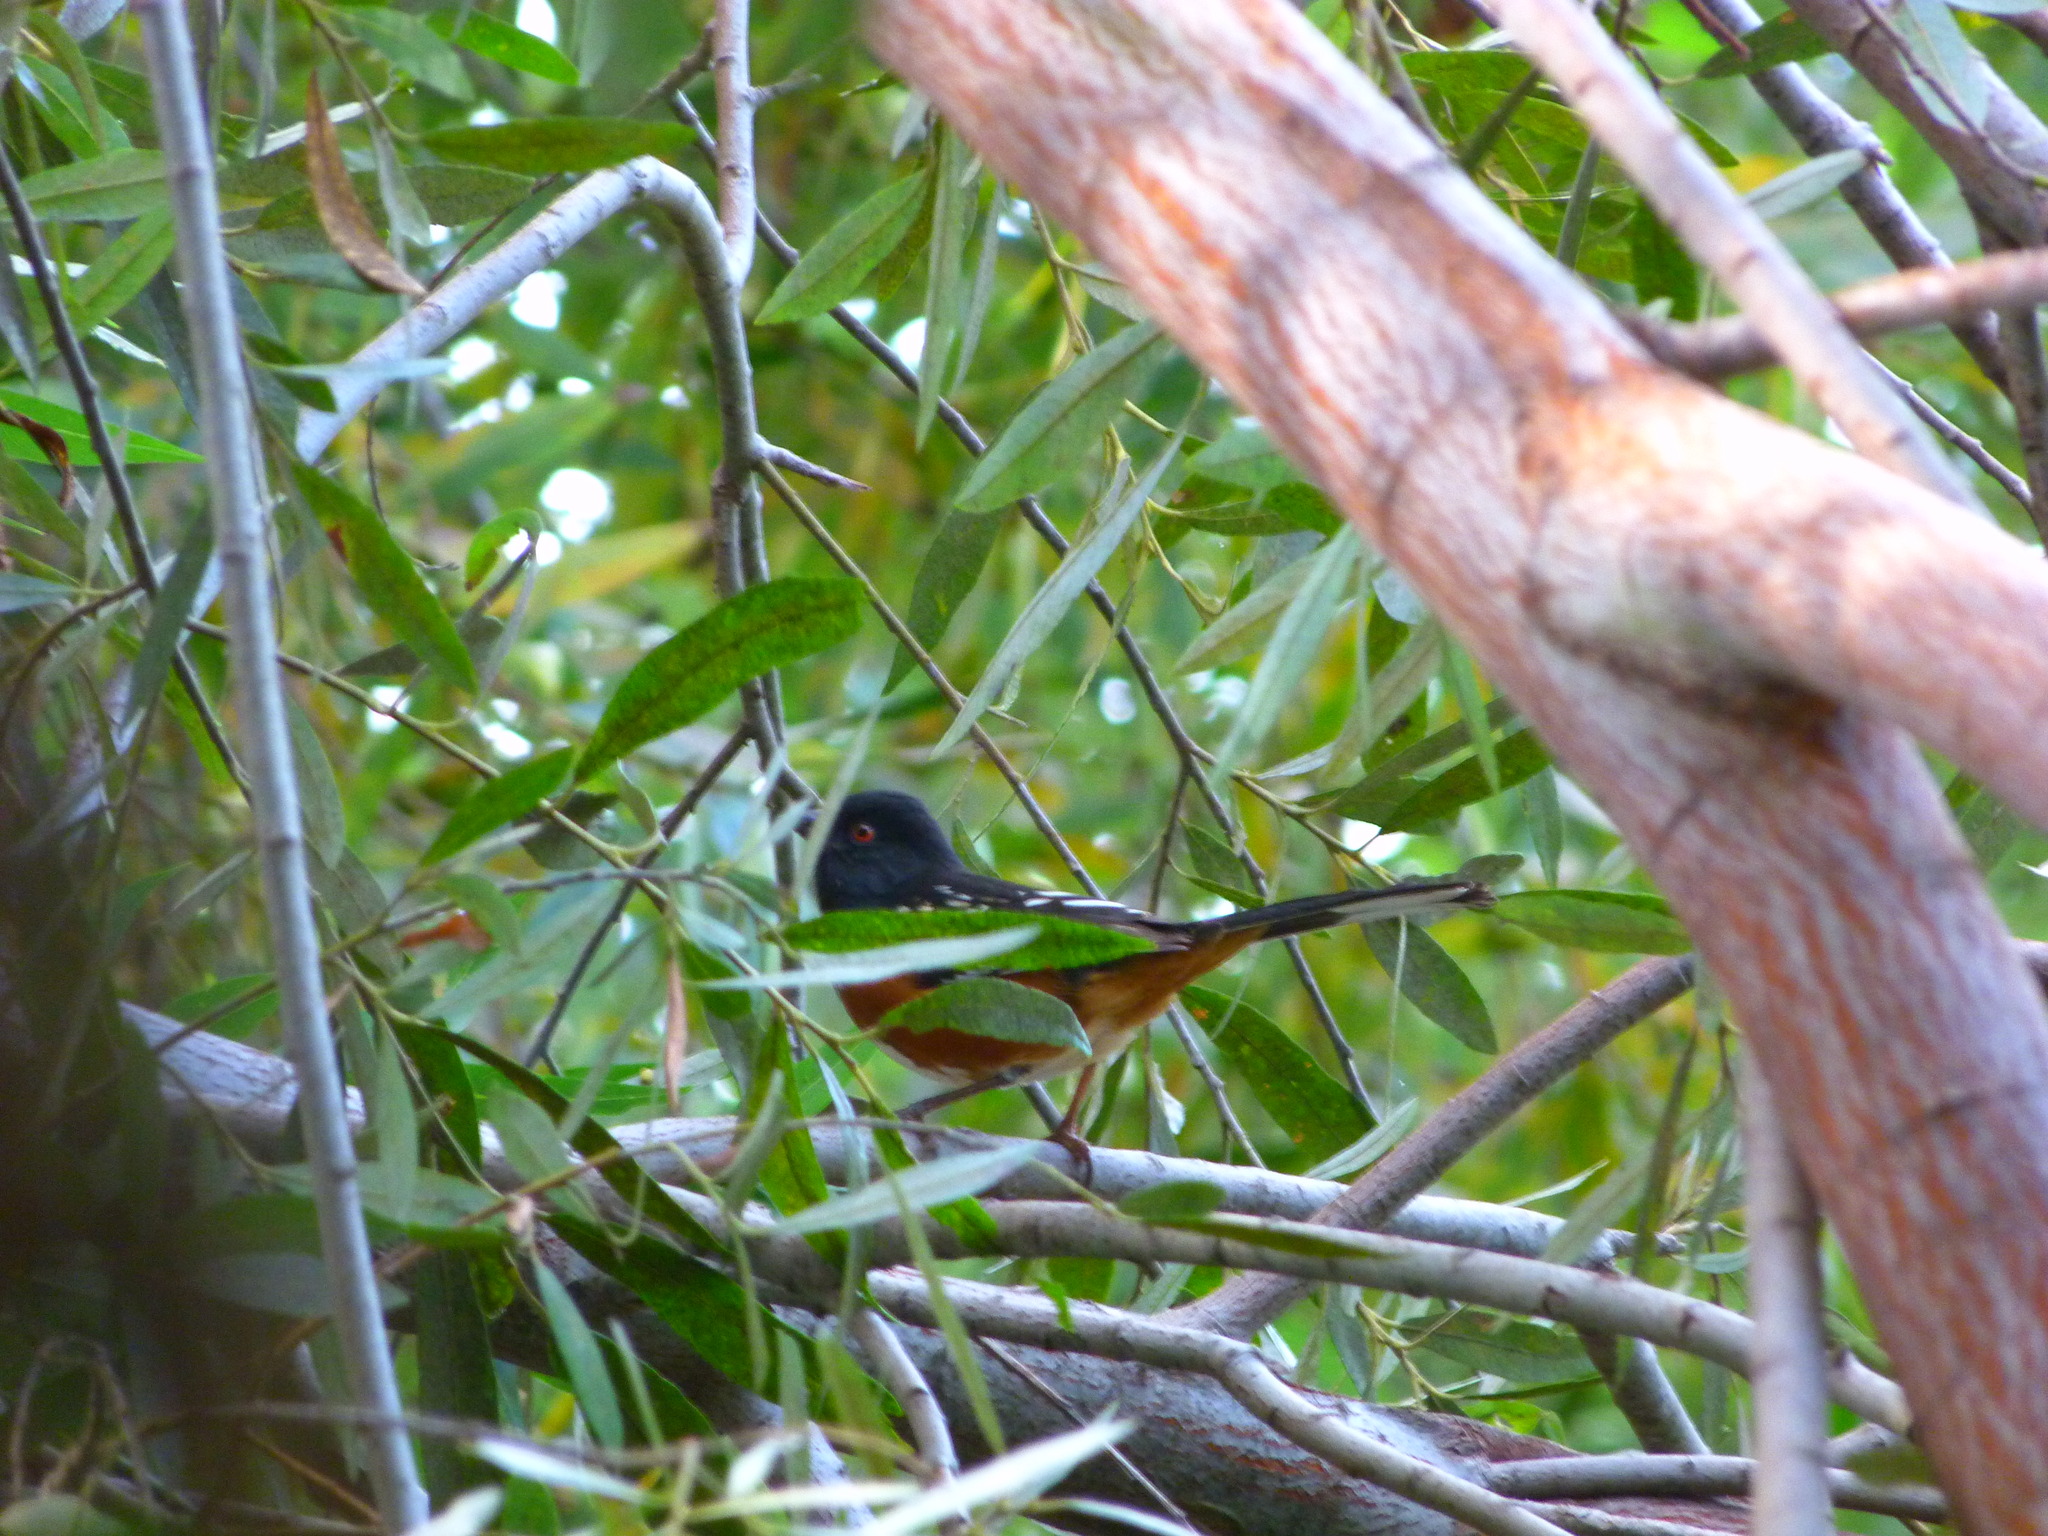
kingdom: Animalia
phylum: Chordata
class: Aves
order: Passeriformes
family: Passerellidae
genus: Pipilo
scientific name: Pipilo maculatus
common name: Spotted towhee
